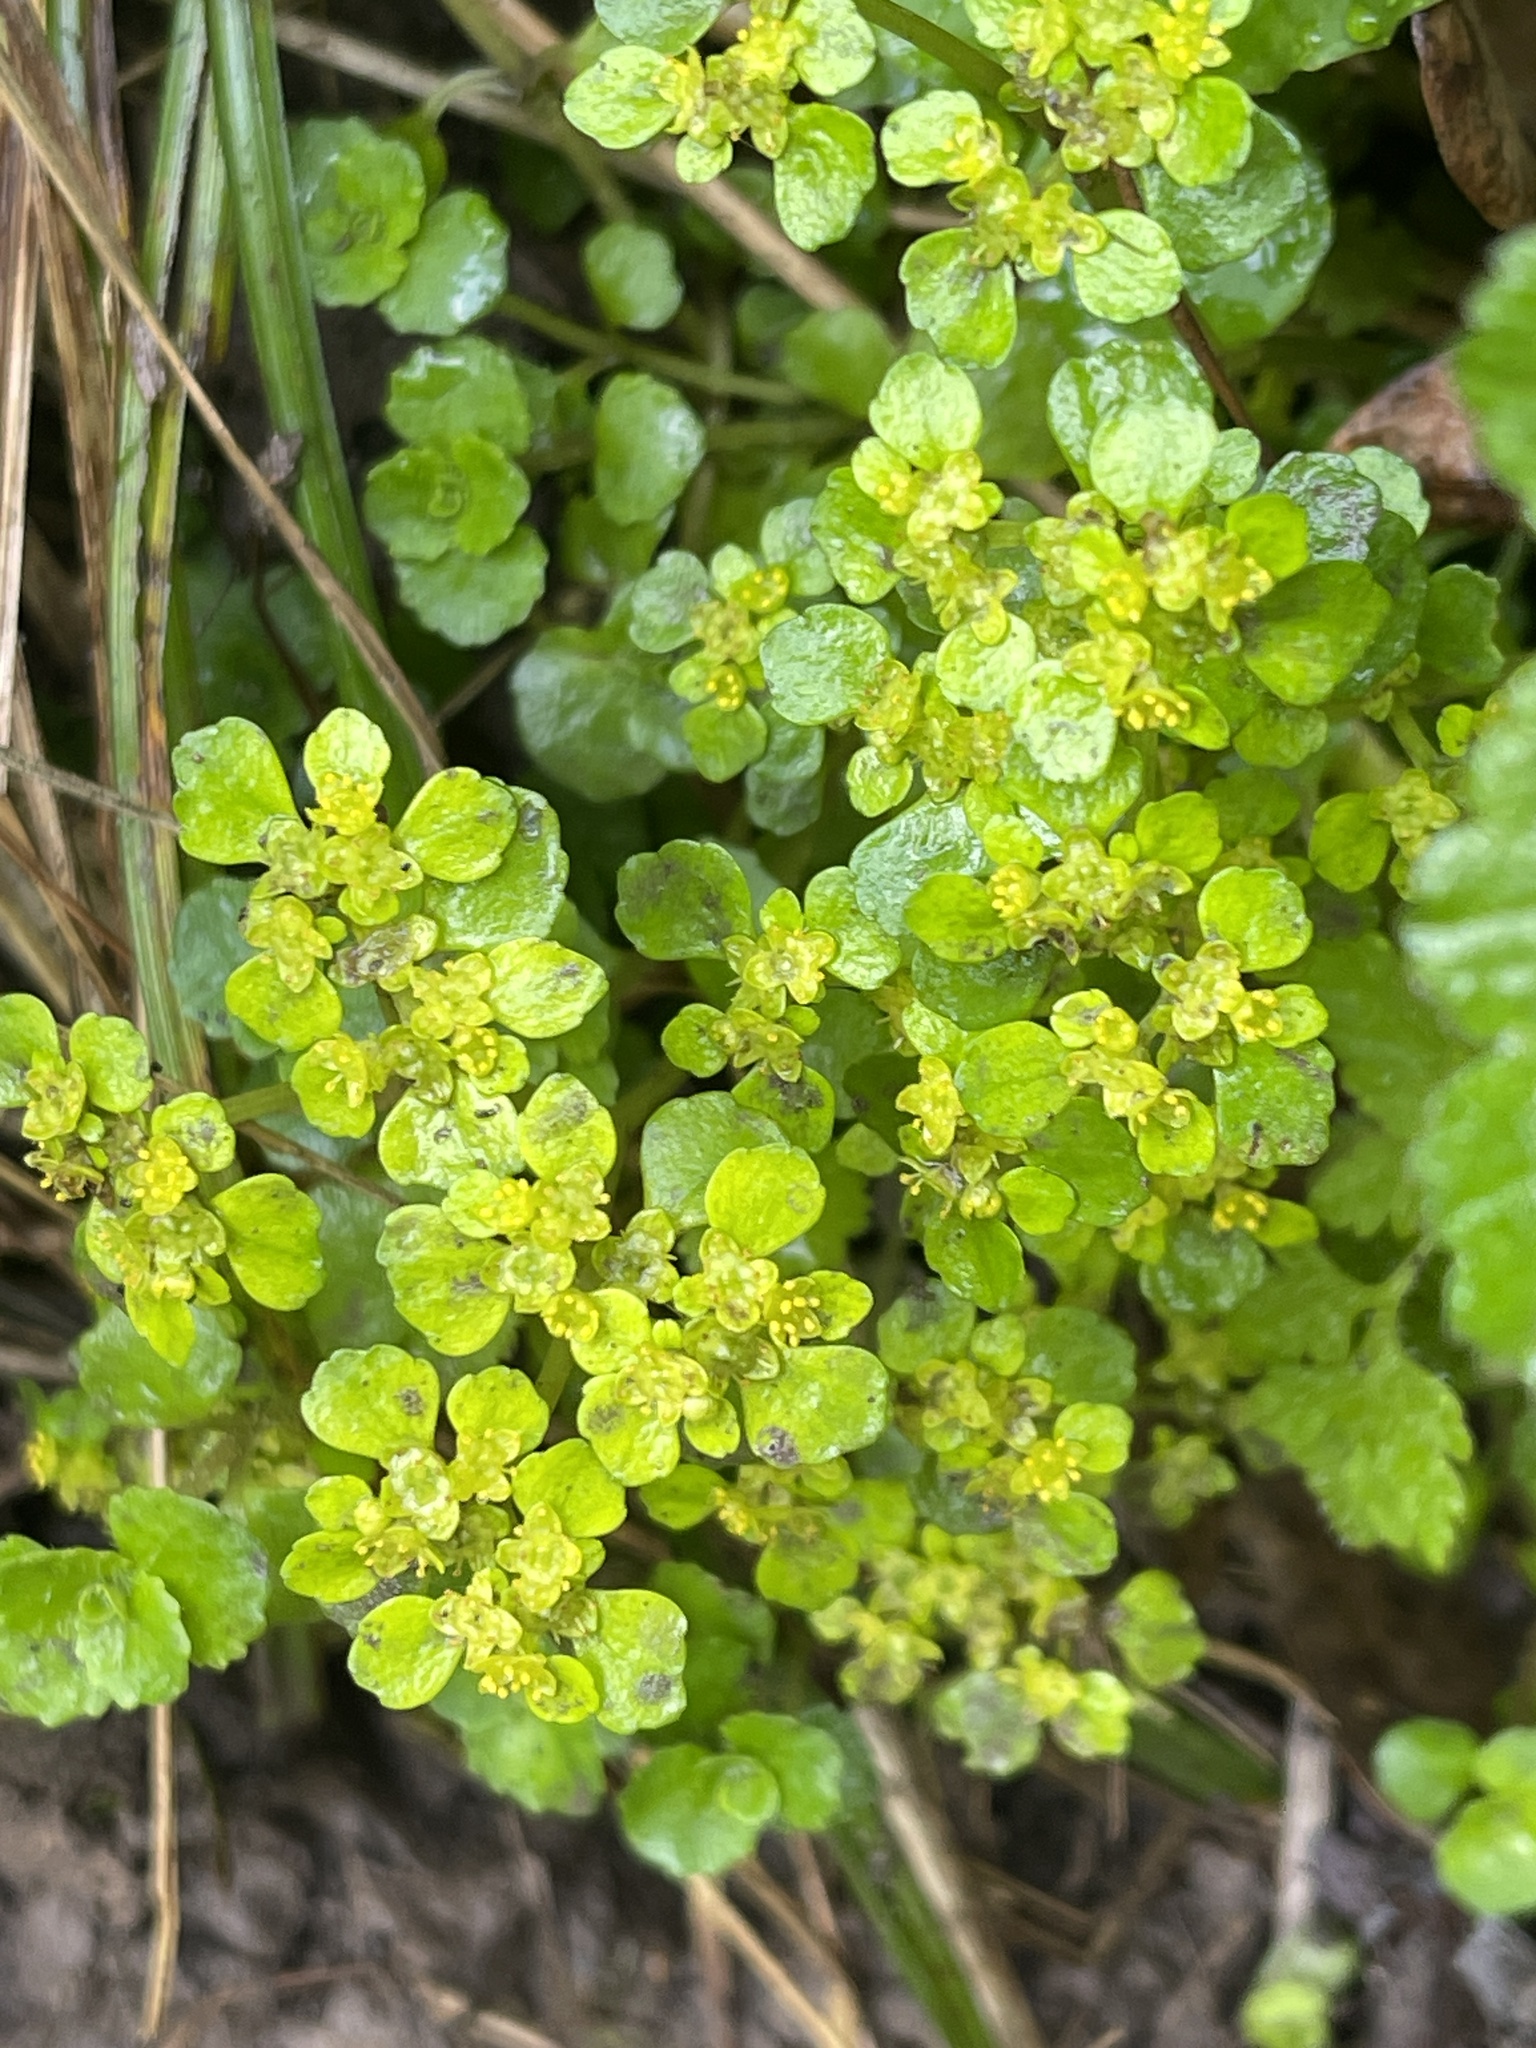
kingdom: Plantae
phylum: Tracheophyta
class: Magnoliopsida
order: Saxifragales
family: Saxifragaceae
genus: Chrysosplenium
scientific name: Chrysosplenium oppositifolium
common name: Opposite-leaved golden-saxifrage
